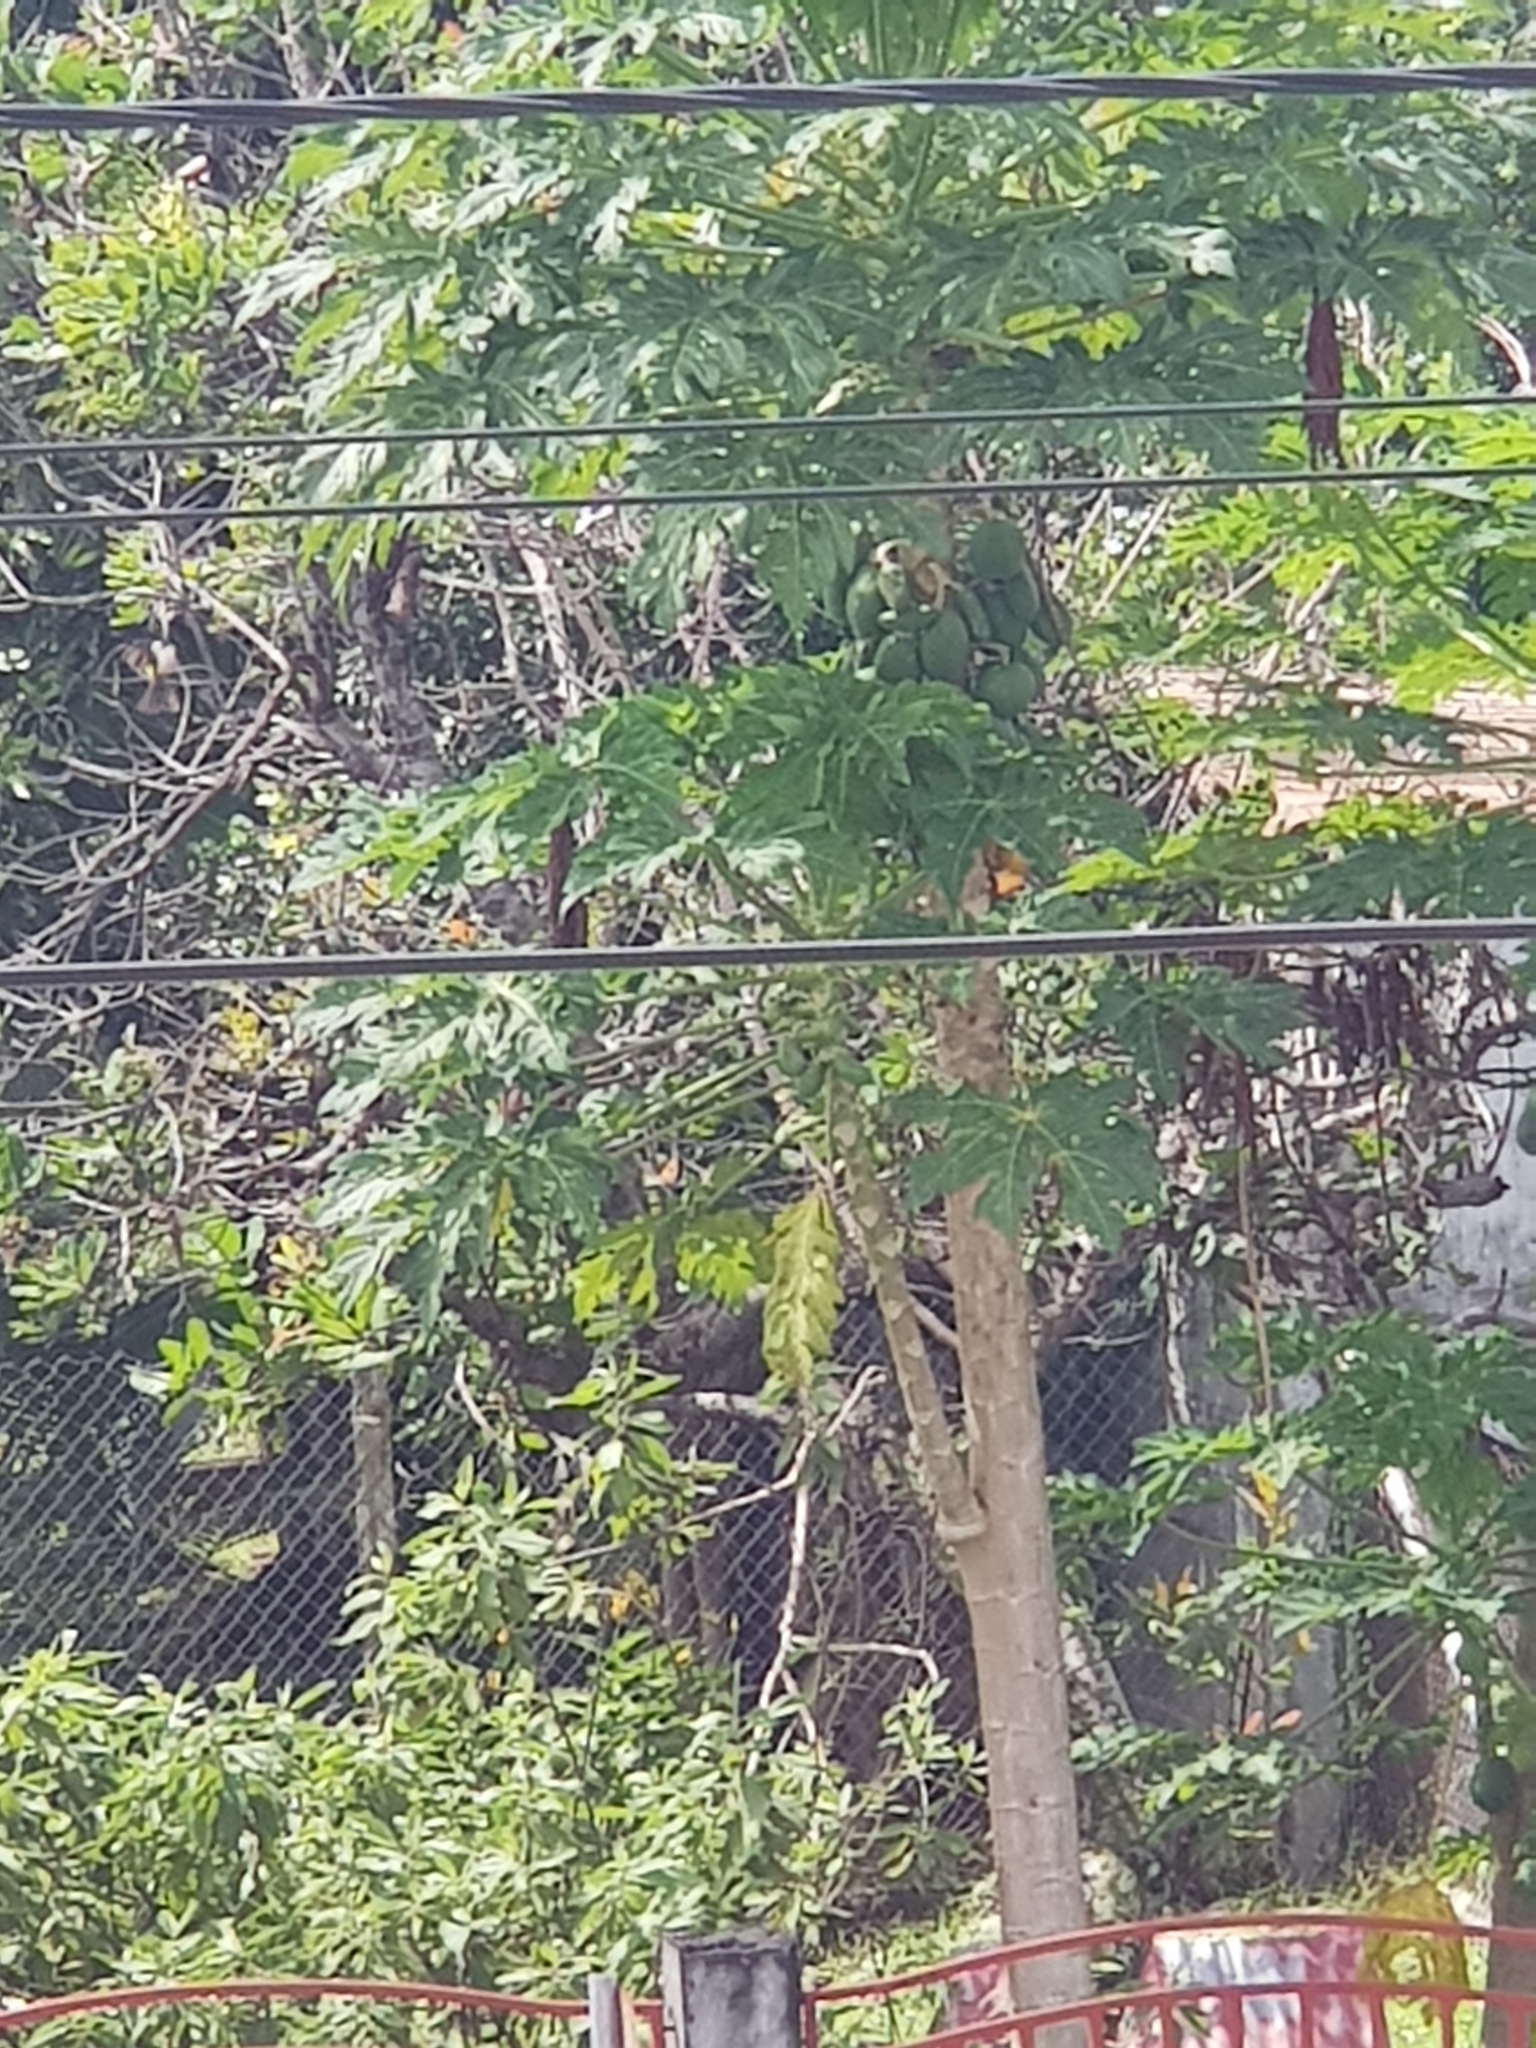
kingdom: Plantae
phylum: Tracheophyta
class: Magnoliopsida
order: Brassicales
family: Caricaceae
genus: Carica
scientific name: Carica papaya
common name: Papaya
